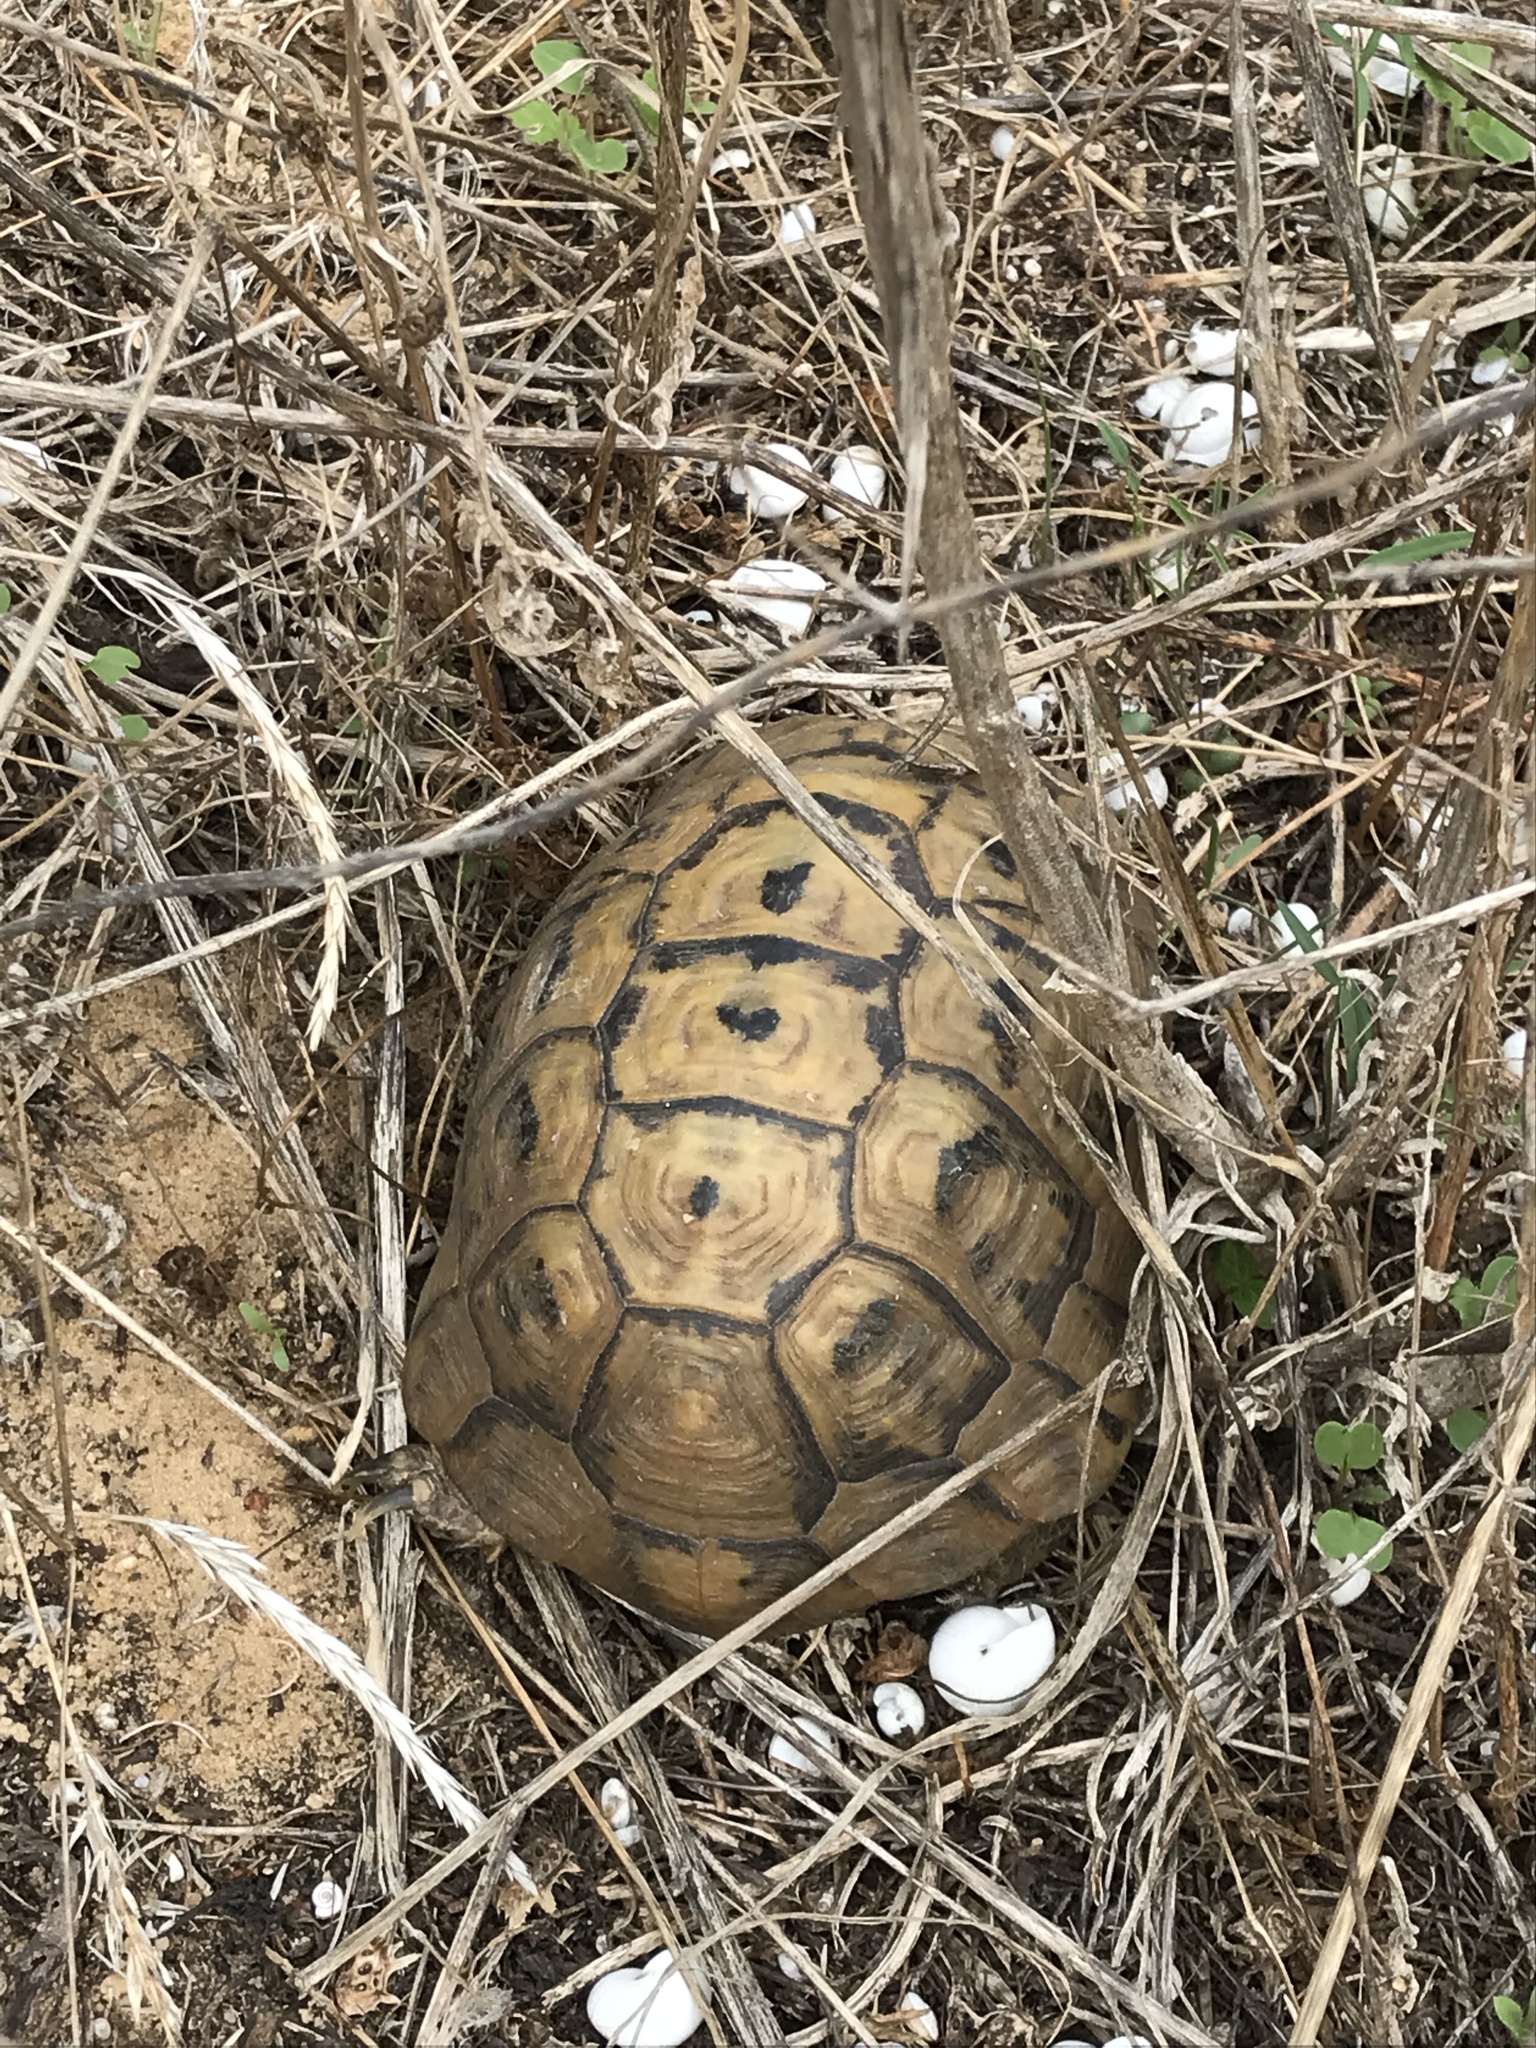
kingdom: Animalia
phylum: Chordata
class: Testudines
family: Testudinidae
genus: Testudo
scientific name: Testudo graeca
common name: Common tortoise
